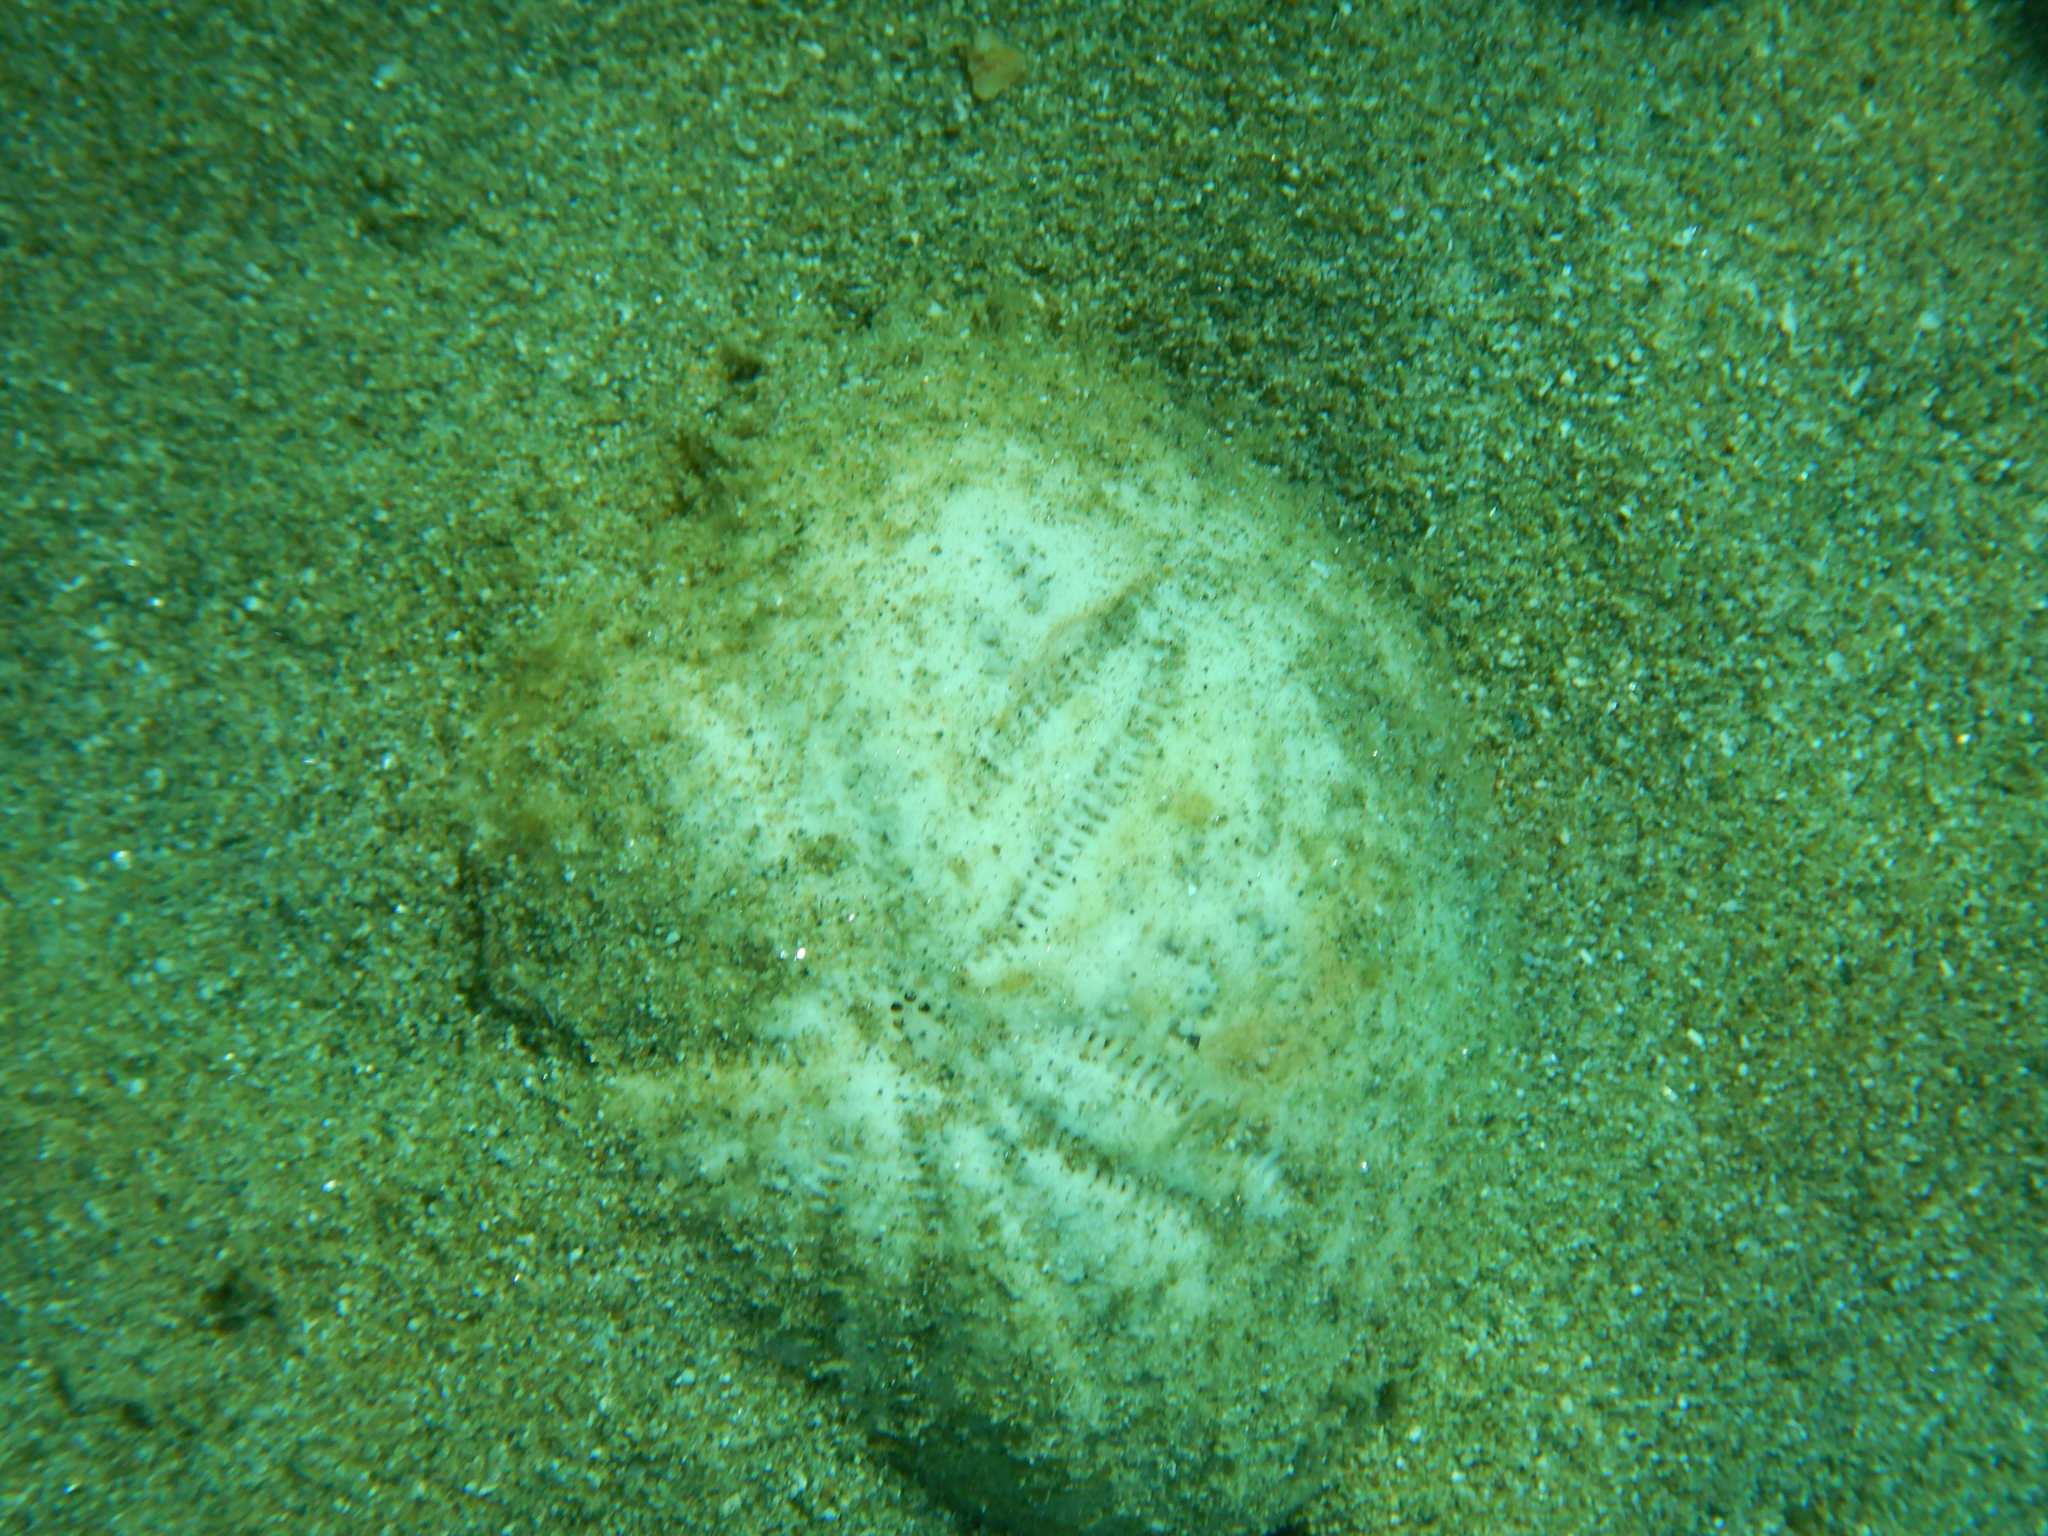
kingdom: Animalia
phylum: Echinodermata
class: Echinoidea
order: Spatangoida
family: Spatangidae
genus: Spatangus
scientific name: Spatangus purpureus
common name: Purple heart urchin
